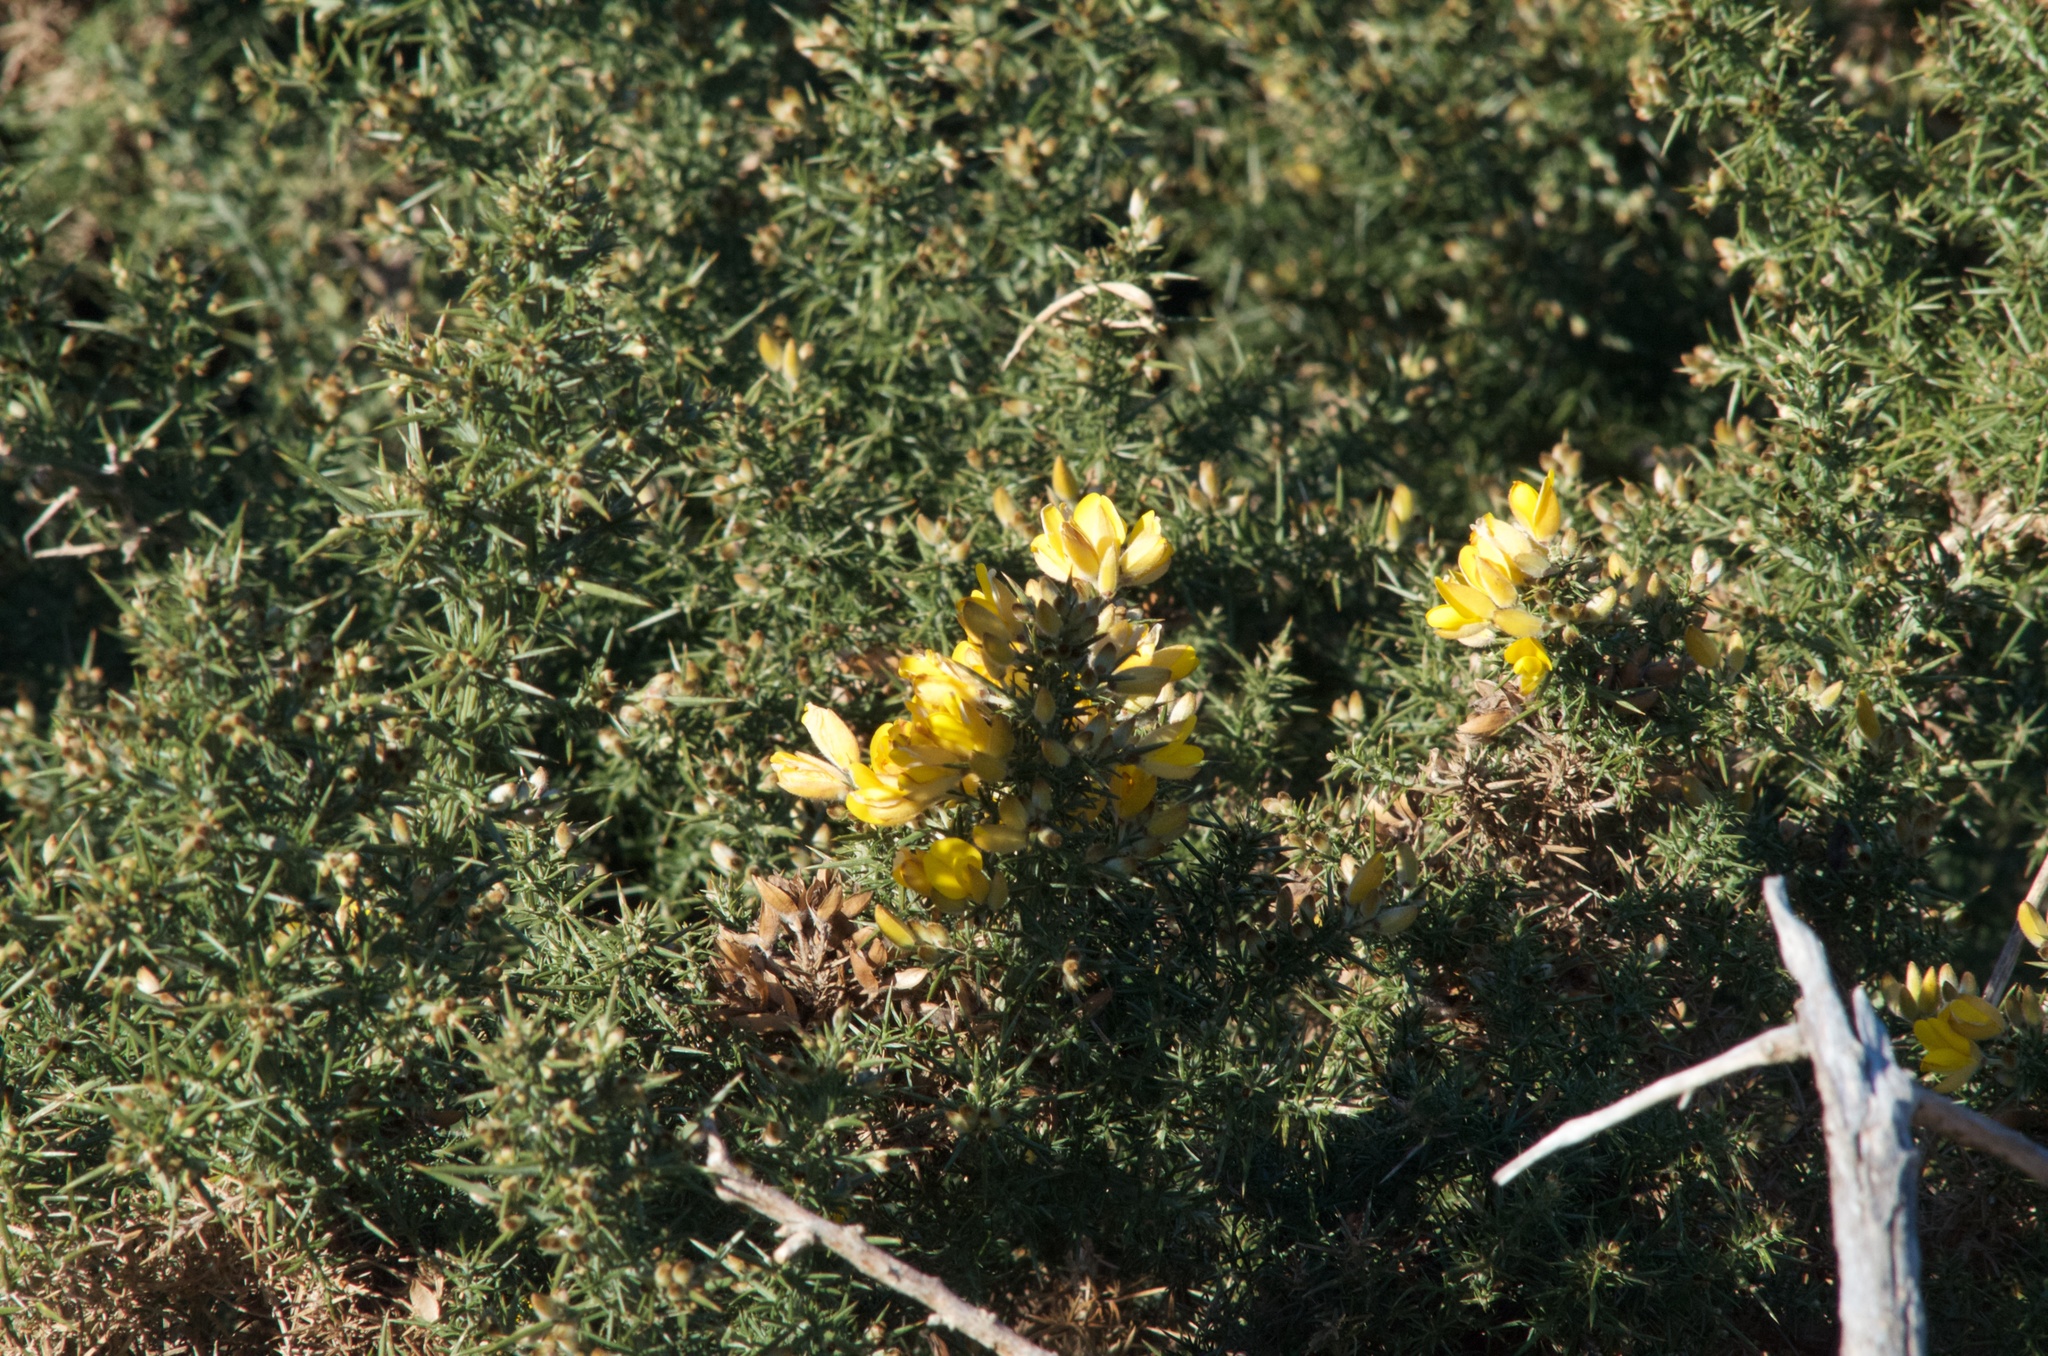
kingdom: Plantae
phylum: Tracheophyta
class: Magnoliopsida
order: Fabales
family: Fabaceae
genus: Ulex
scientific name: Ulex europaeus
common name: Common gorse
